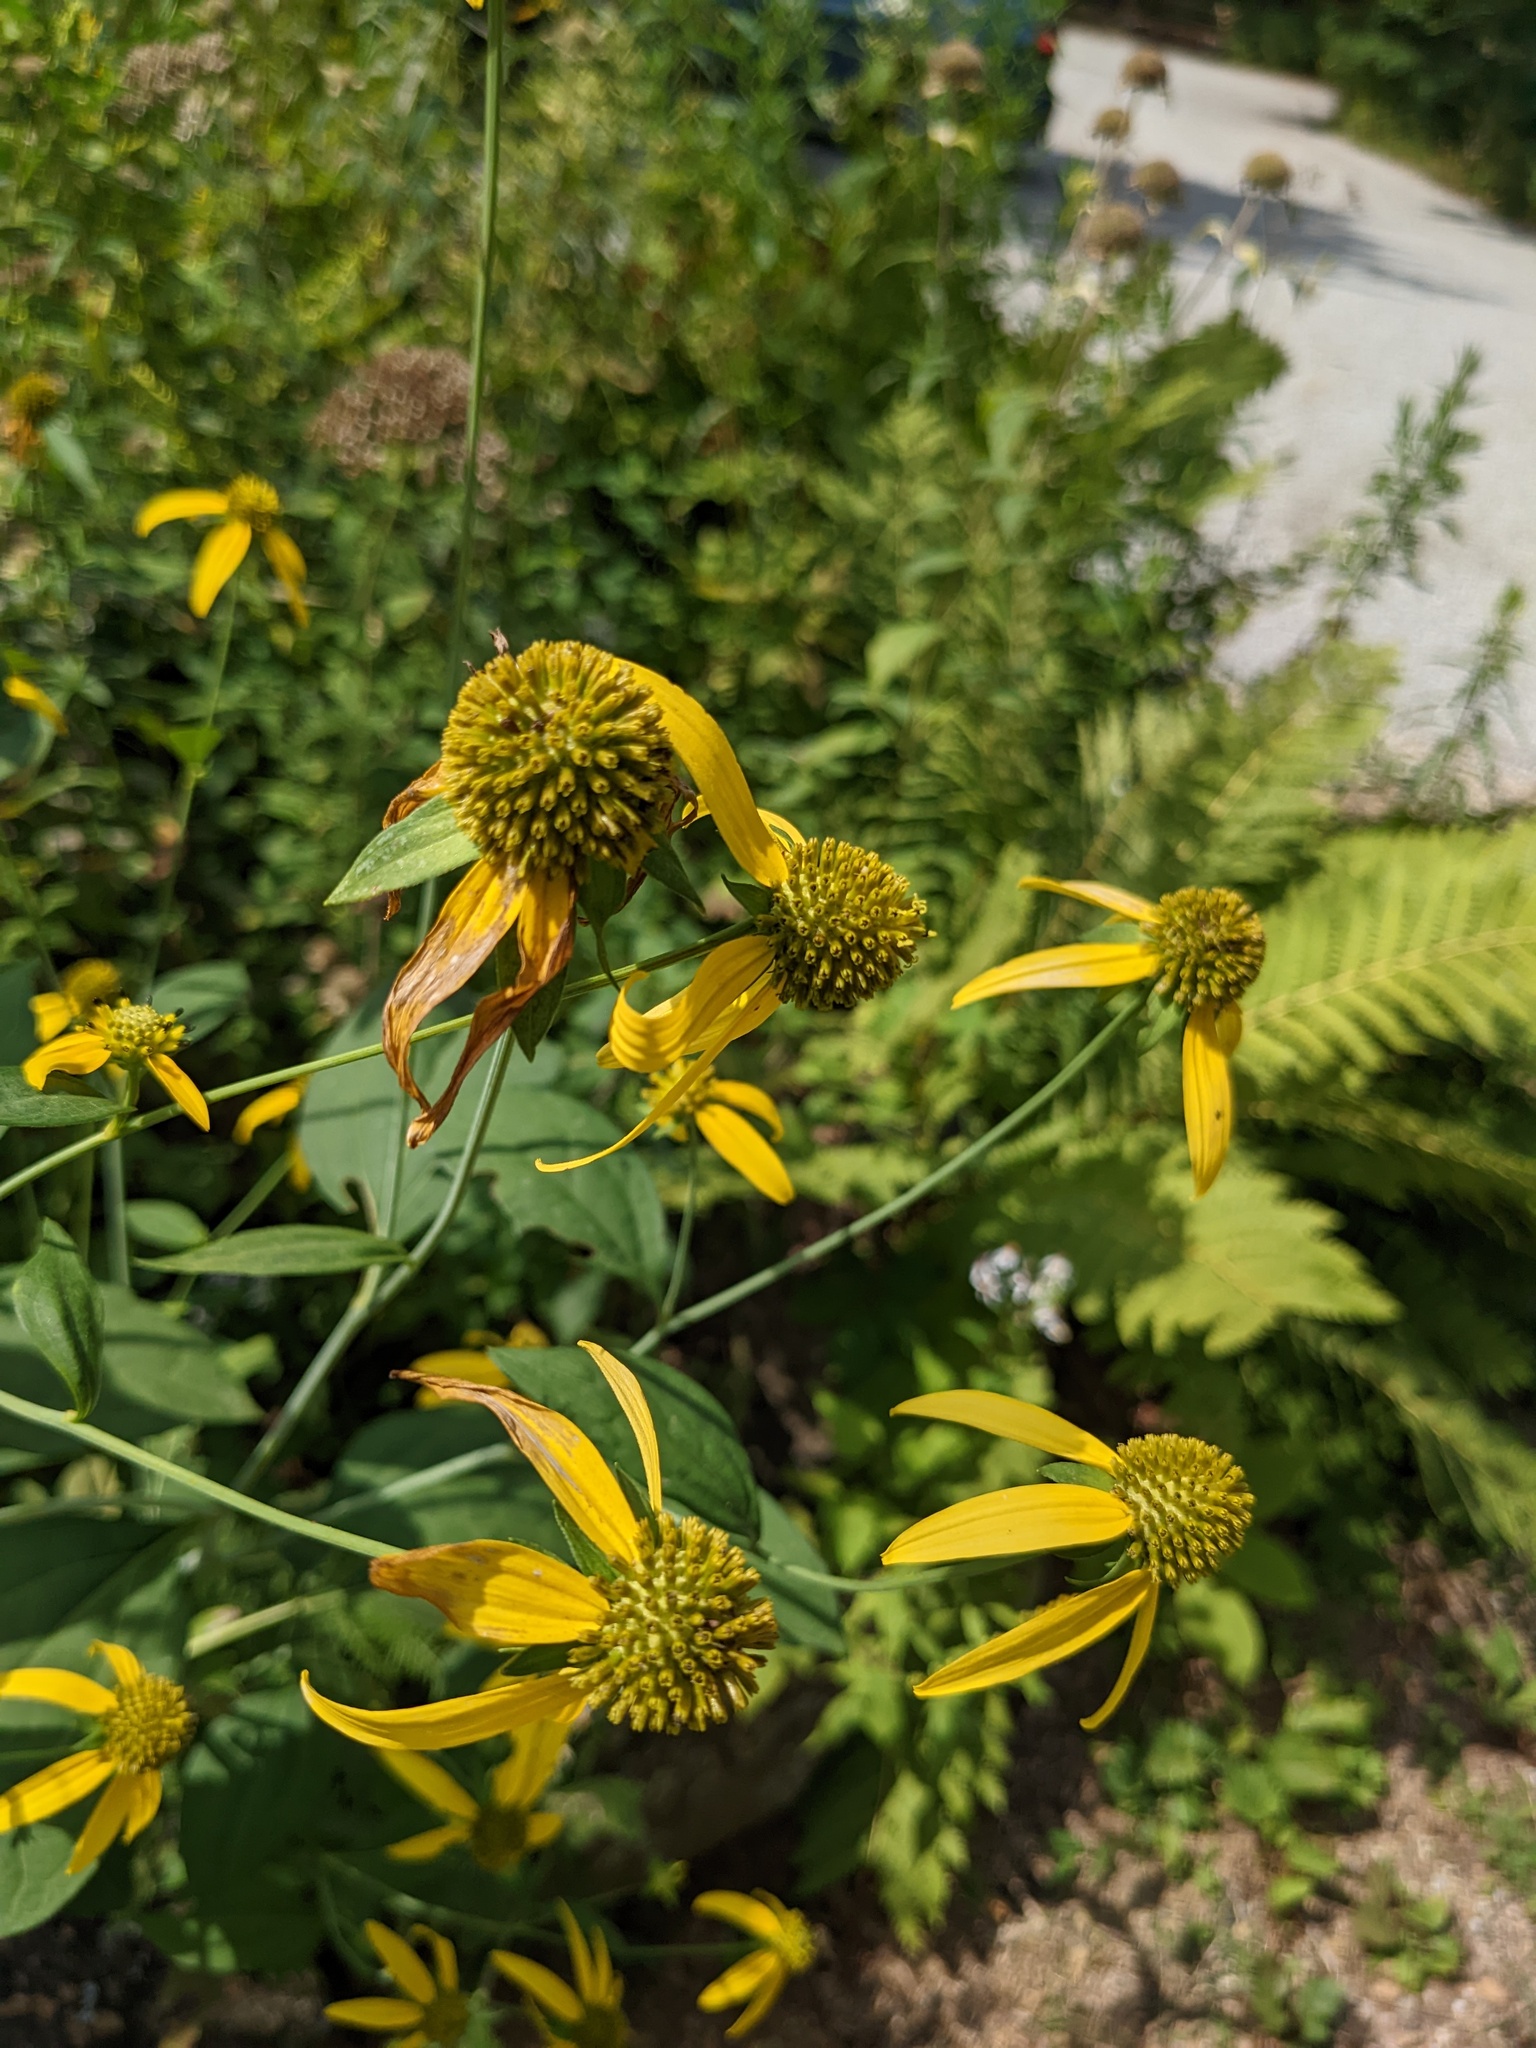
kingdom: Plantae
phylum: Tracheophyta
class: Magnoliopsida
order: Asterales
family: Asteraceae
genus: Rudbeckia
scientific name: Rudbeckia laciniata
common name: Coneflower
